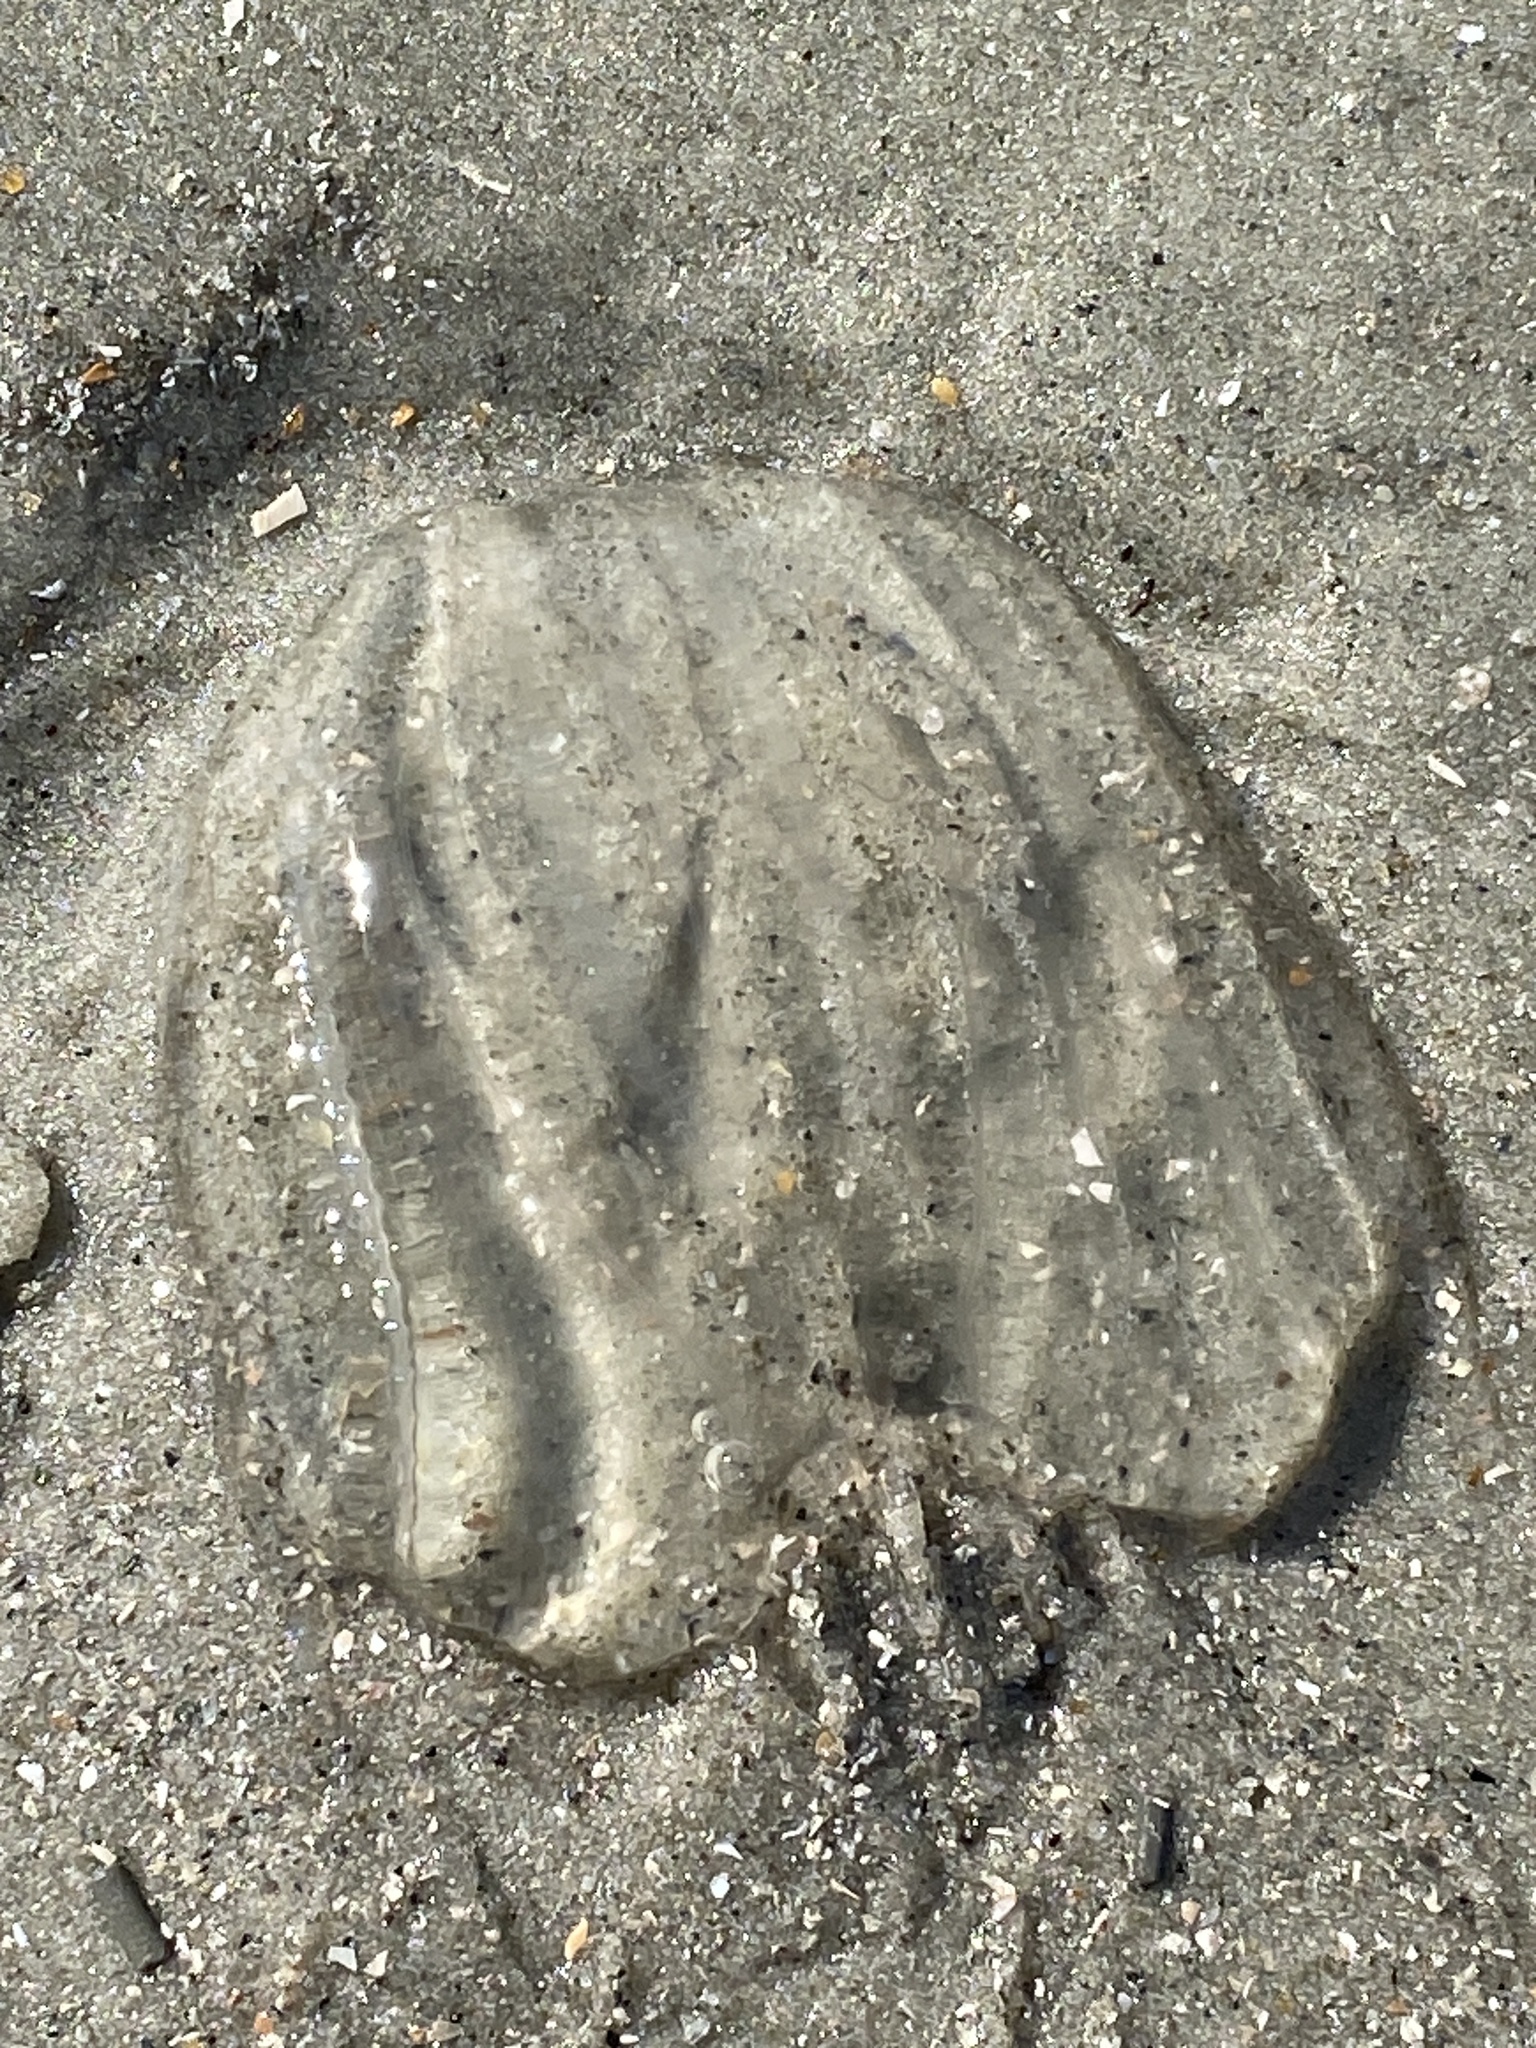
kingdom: Animalia
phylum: Ctenophora
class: Tentaculata
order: Lobata
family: Bolinopsidae
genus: Mnemiopsis
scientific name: Mnemiopsis leidyi
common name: American comb jelly
